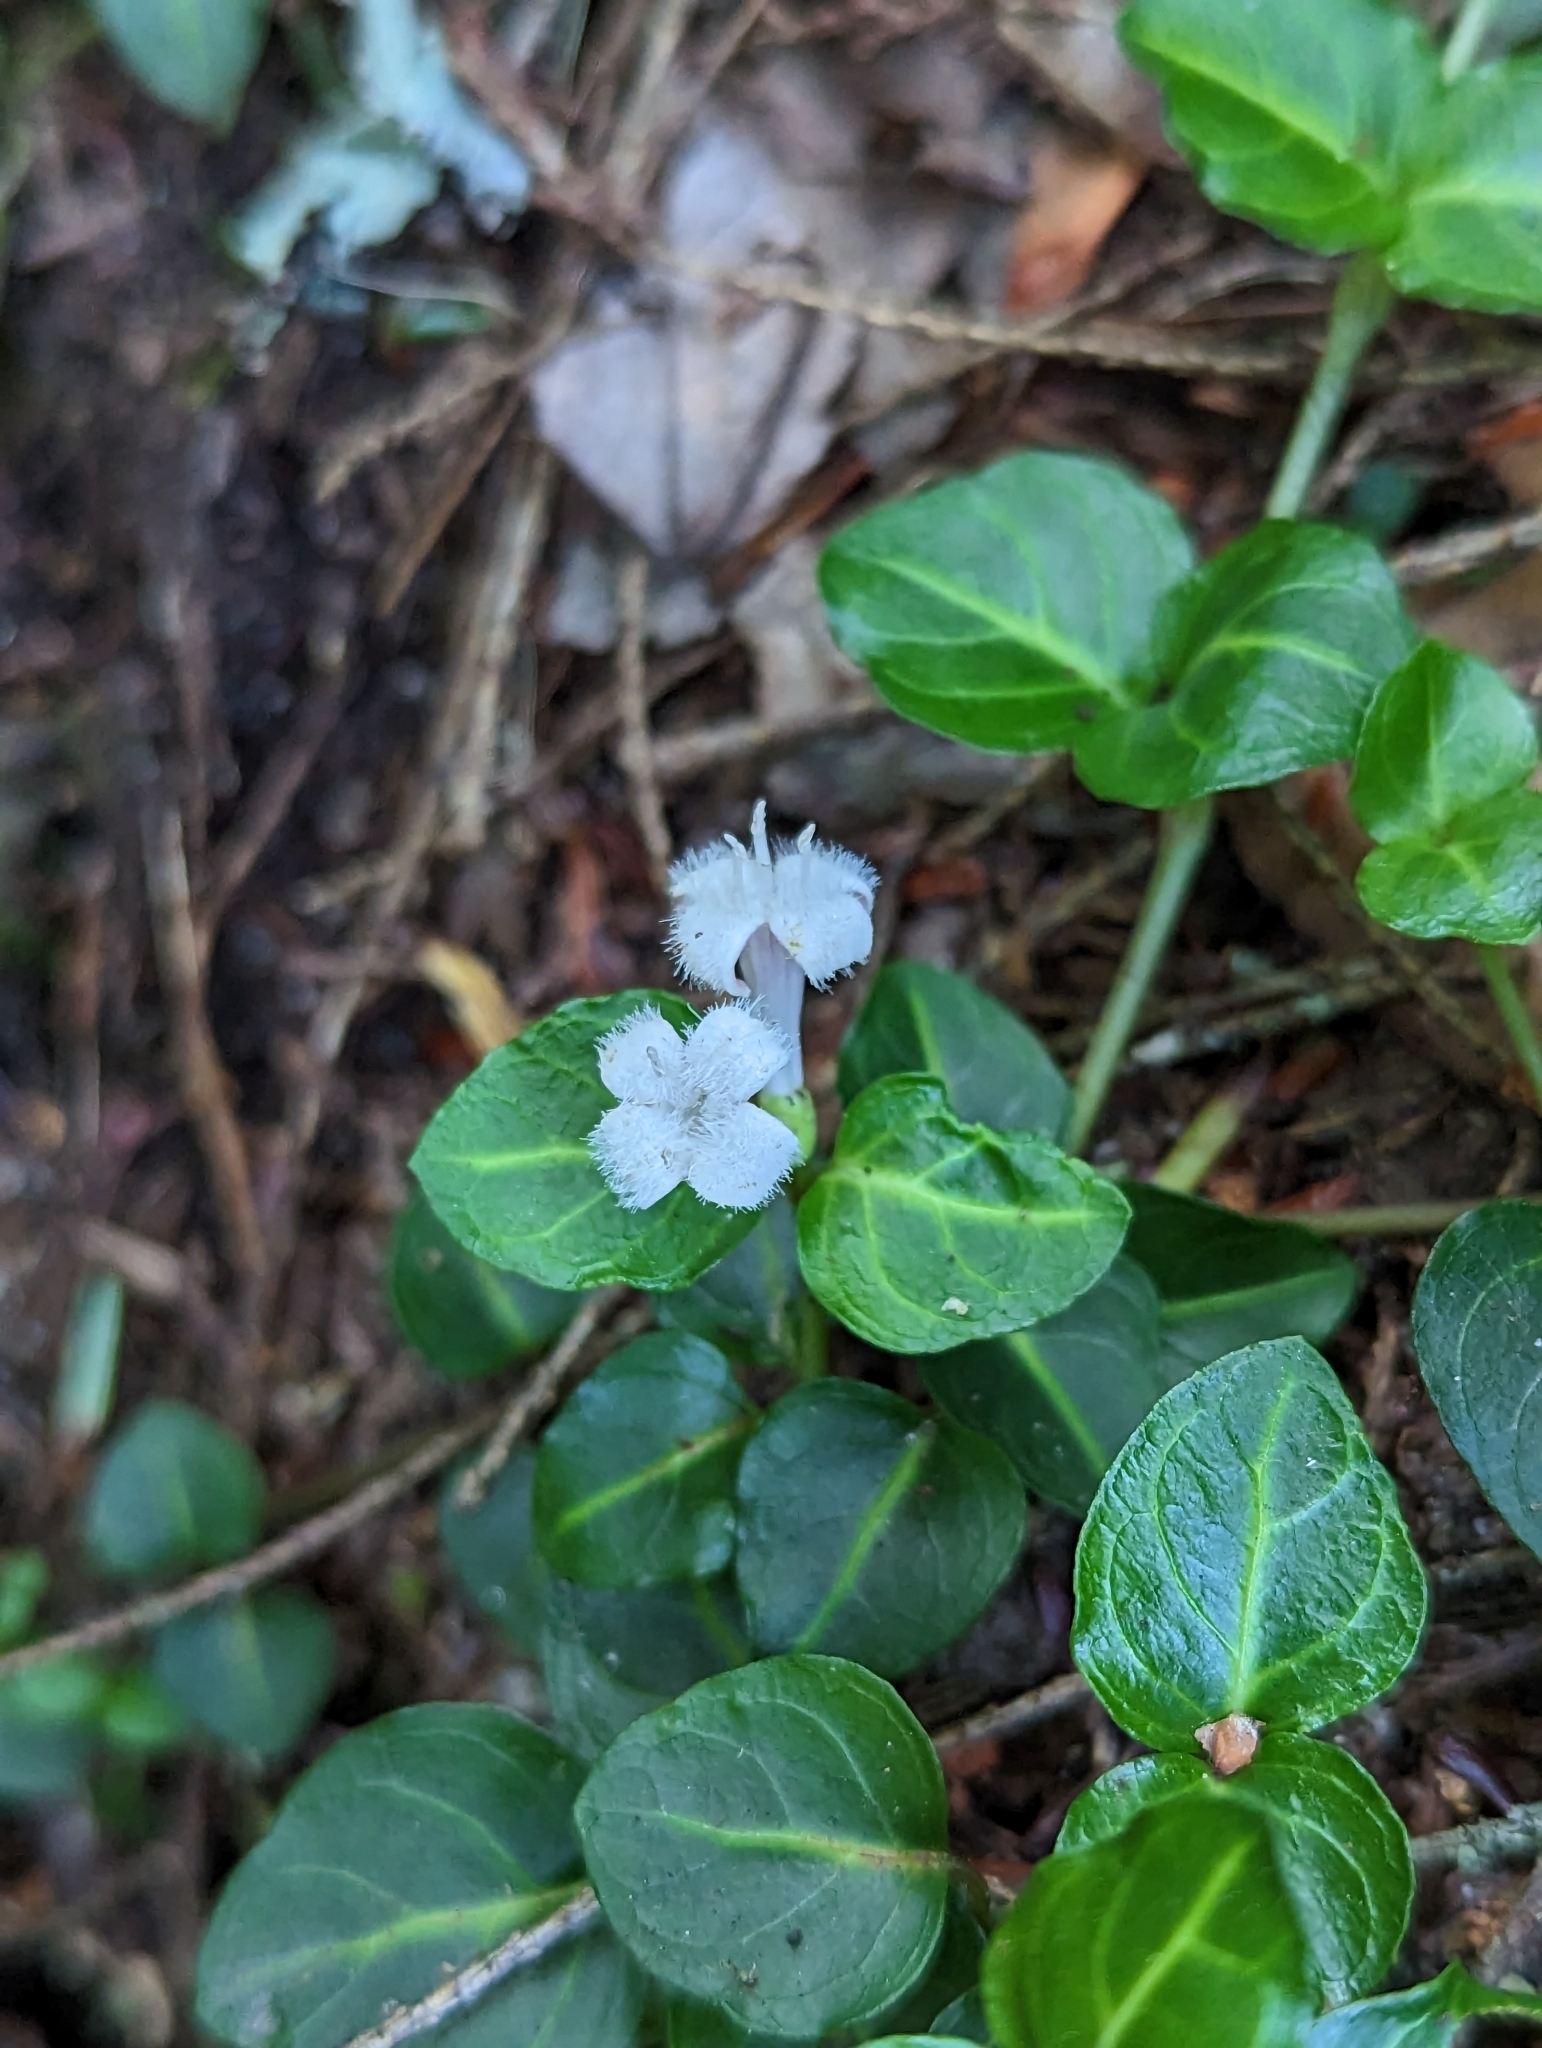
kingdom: Plantae
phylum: Tracheophyta
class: Magnoliopsida
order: Gentianales
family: Rubiaceae
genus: Mitchella
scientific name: Mitchella repens
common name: Partridge-berry
